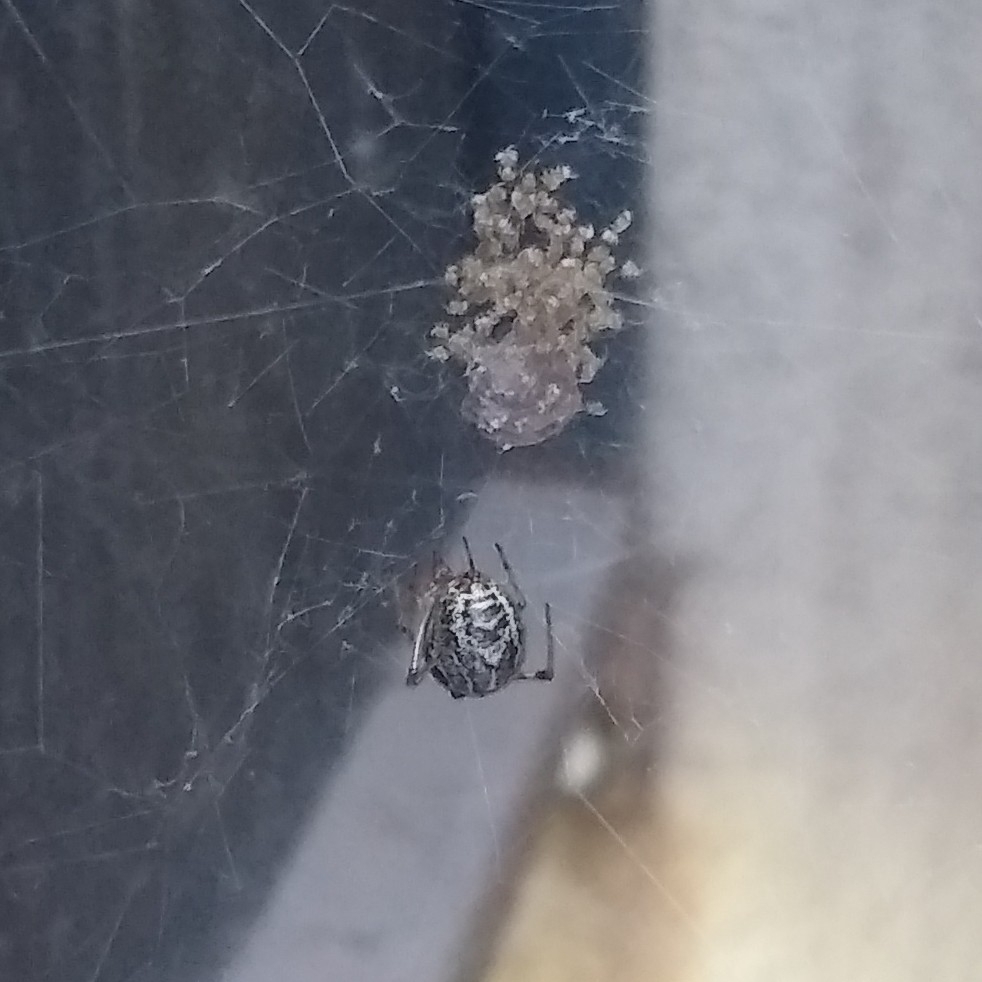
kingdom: Animalia
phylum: Arthropoda
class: Arachnida
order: Araneae
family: Theridiidae
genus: Parasteatoda
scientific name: Parasteatoda tepidariorum
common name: Common house spider
